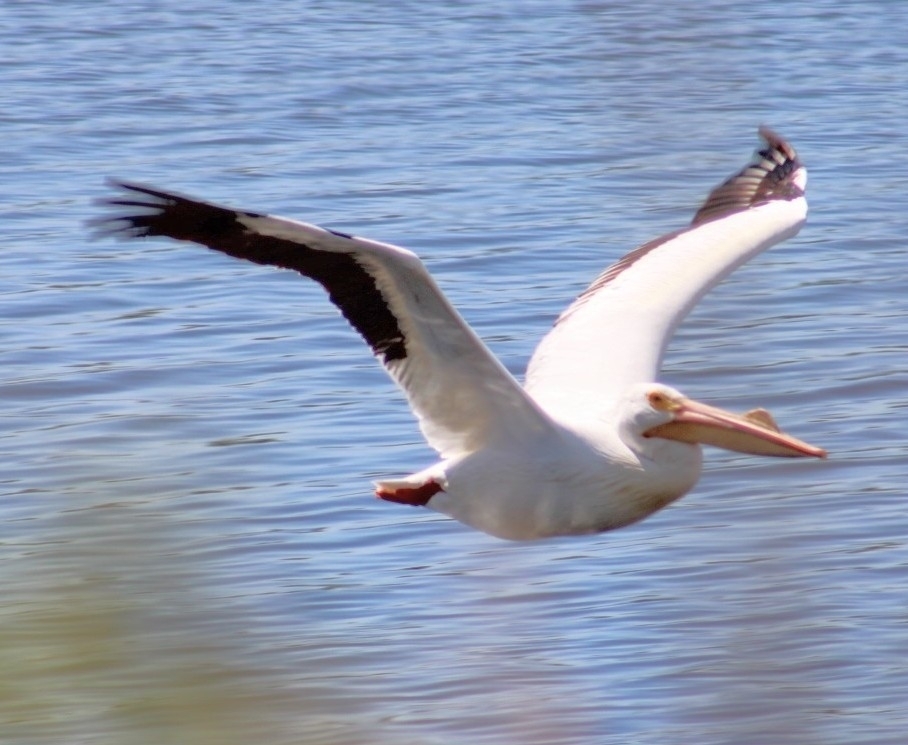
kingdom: Animalia
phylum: Chordata
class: Aves
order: Pelecaniformes
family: Pelecanidae
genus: Pelecanus
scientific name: Pelecanus erythrorhynchos
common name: American white pelican
